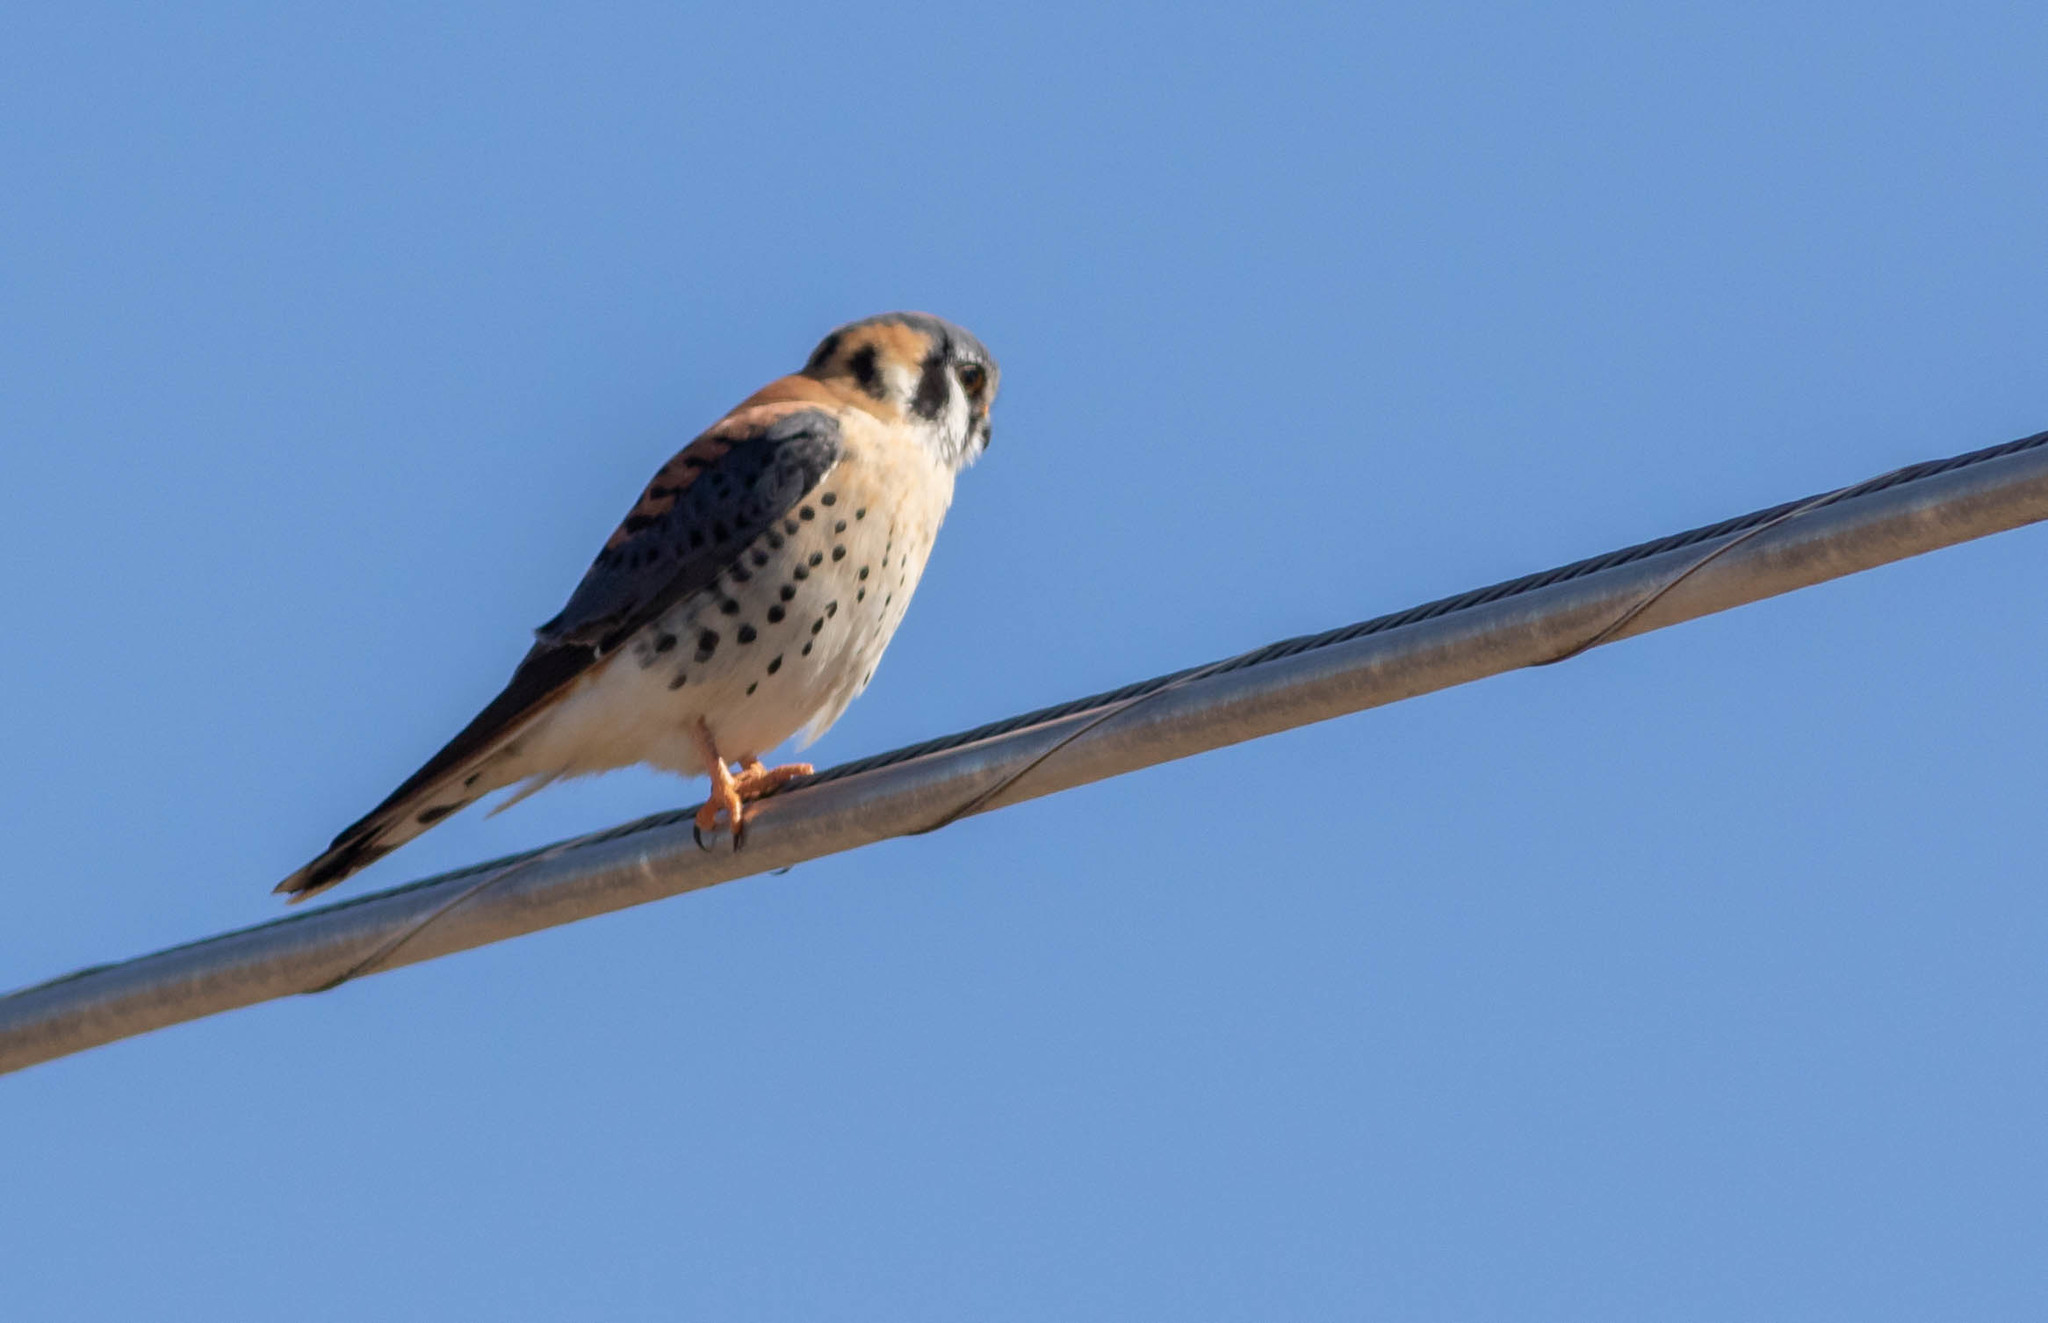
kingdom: Animalia
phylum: Chordata
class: Aves
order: Falconiformes
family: Falconidae
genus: Falco
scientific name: Falco sparverius
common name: American kestrel
